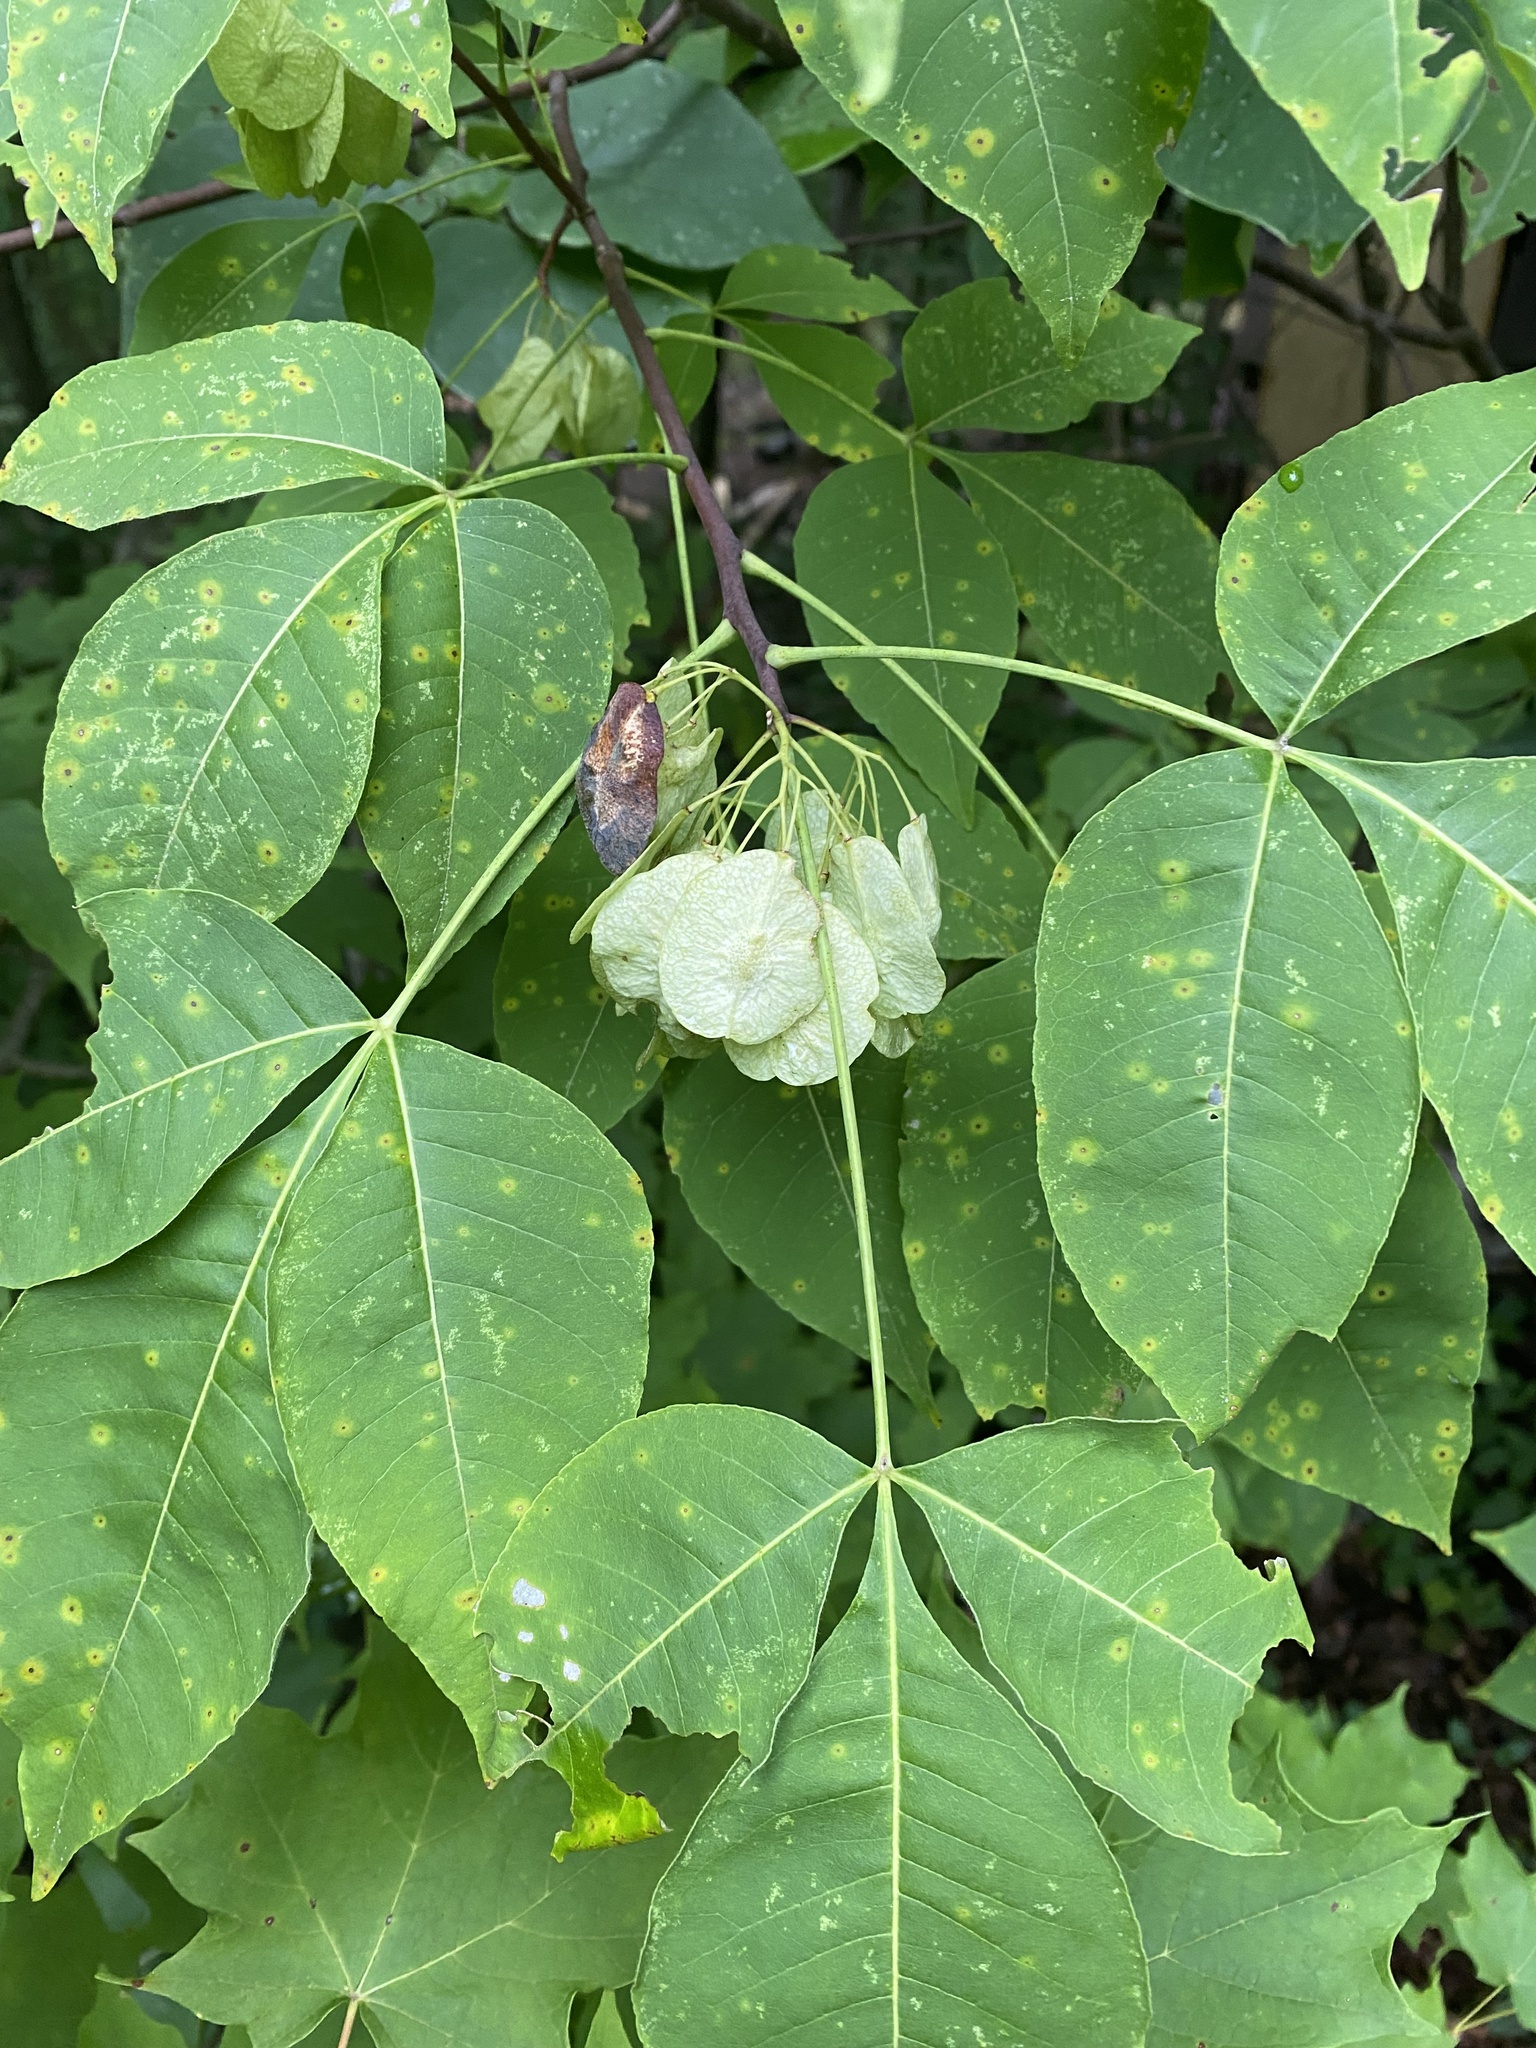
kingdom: Plantae
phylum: Tracheophyta
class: Magnoliopsida
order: Sapindales
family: Rutaceae
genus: Ptelea
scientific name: Ptelea trifoliata
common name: Common hop-tree
